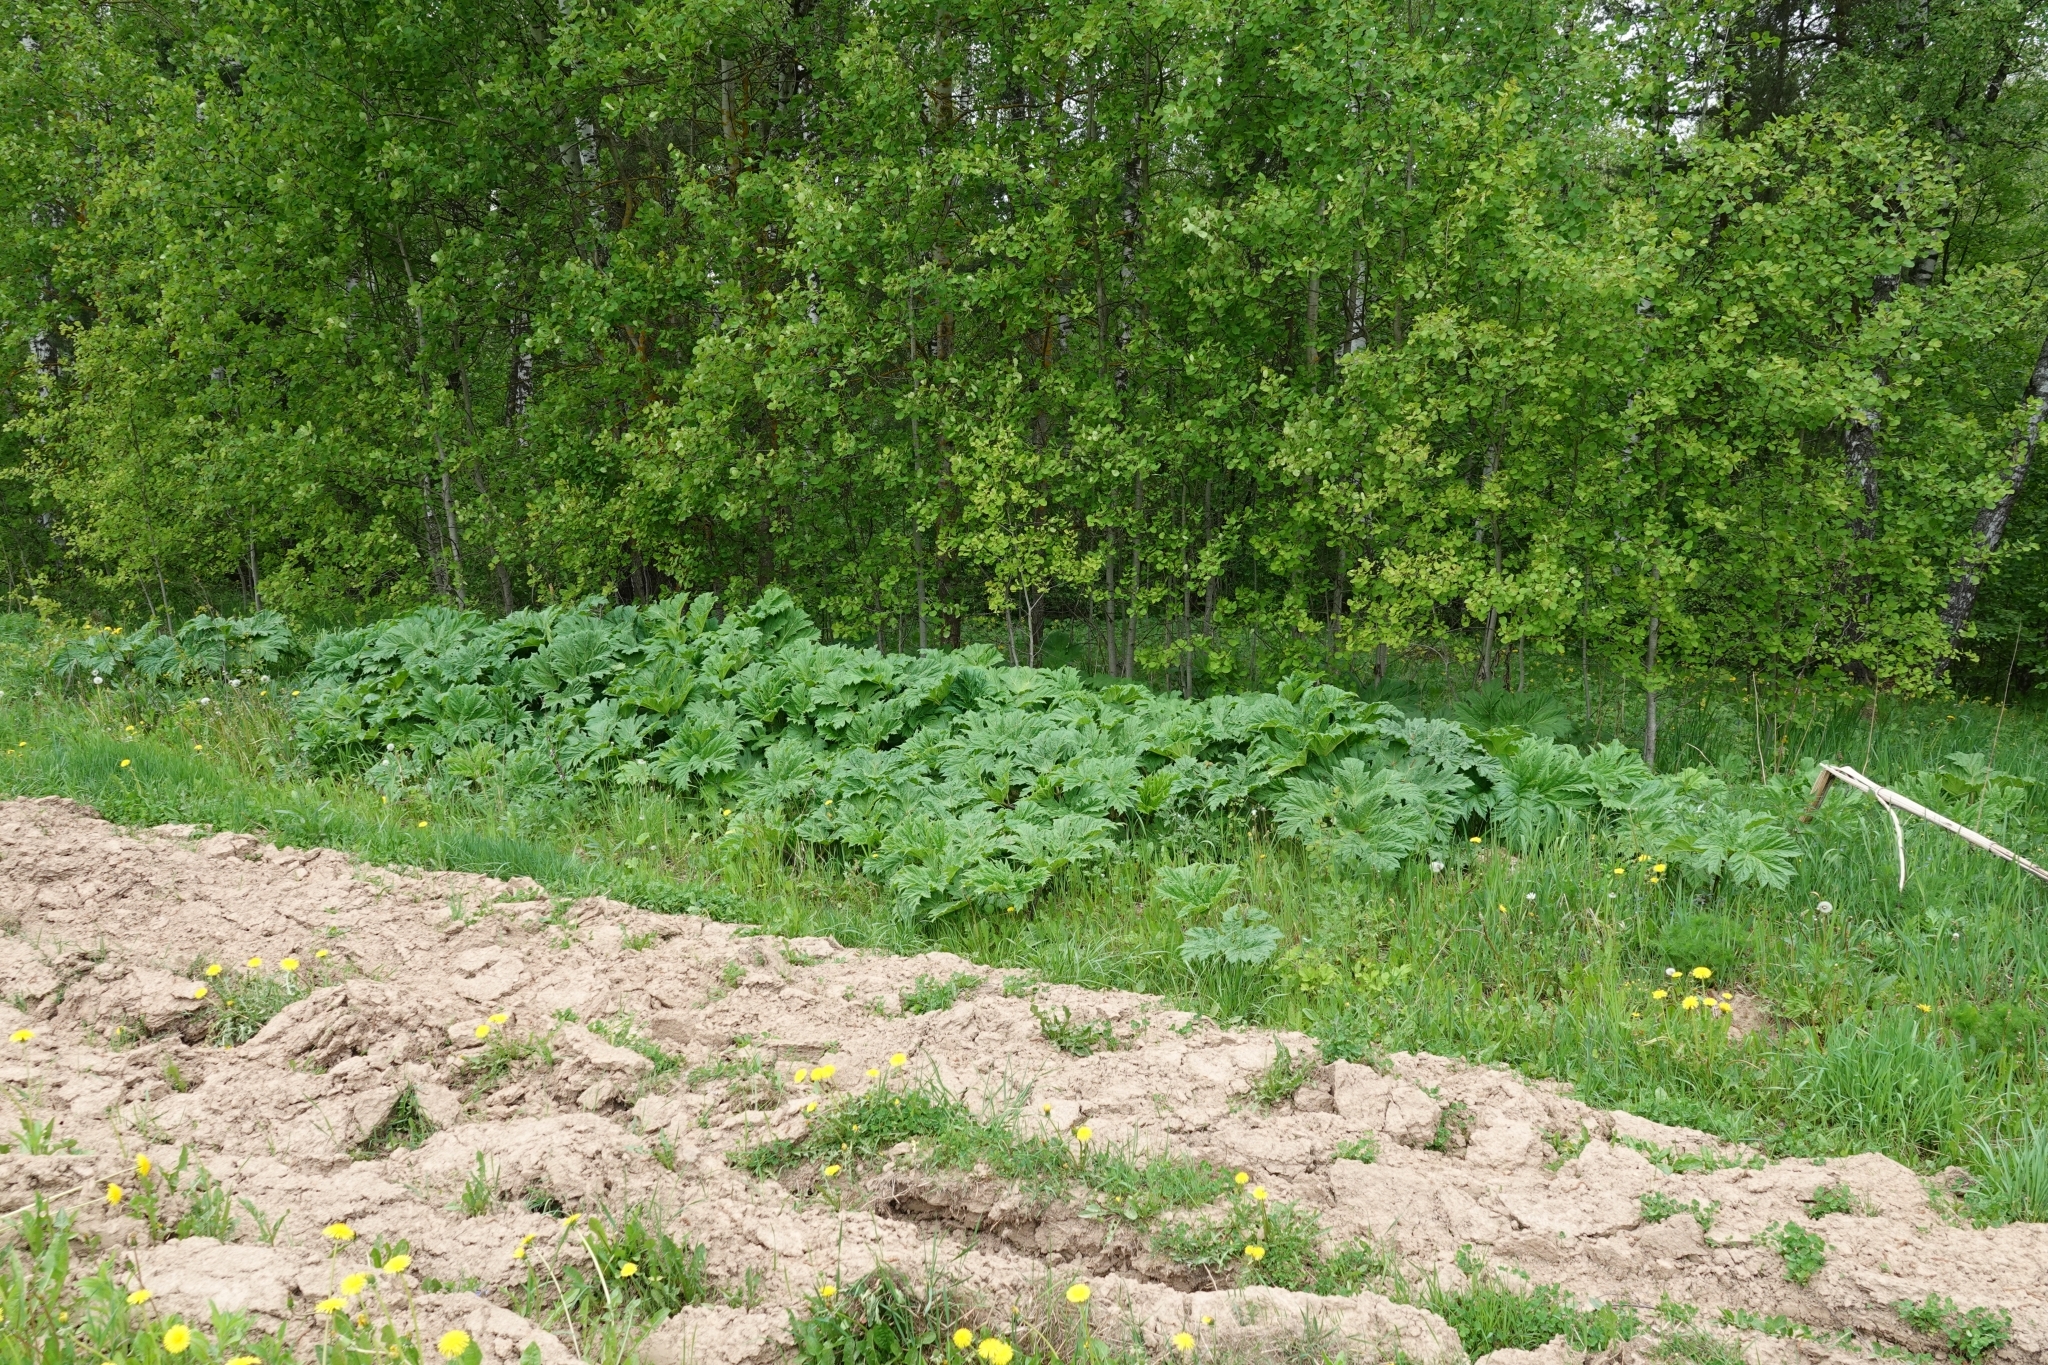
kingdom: Plantae
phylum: Tracheophyta
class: Magnoliopsida
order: Apiales
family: Apiaceae
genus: Heracleum
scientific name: Heracleum sosnowskyi
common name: Sosnowsky's hogweed
